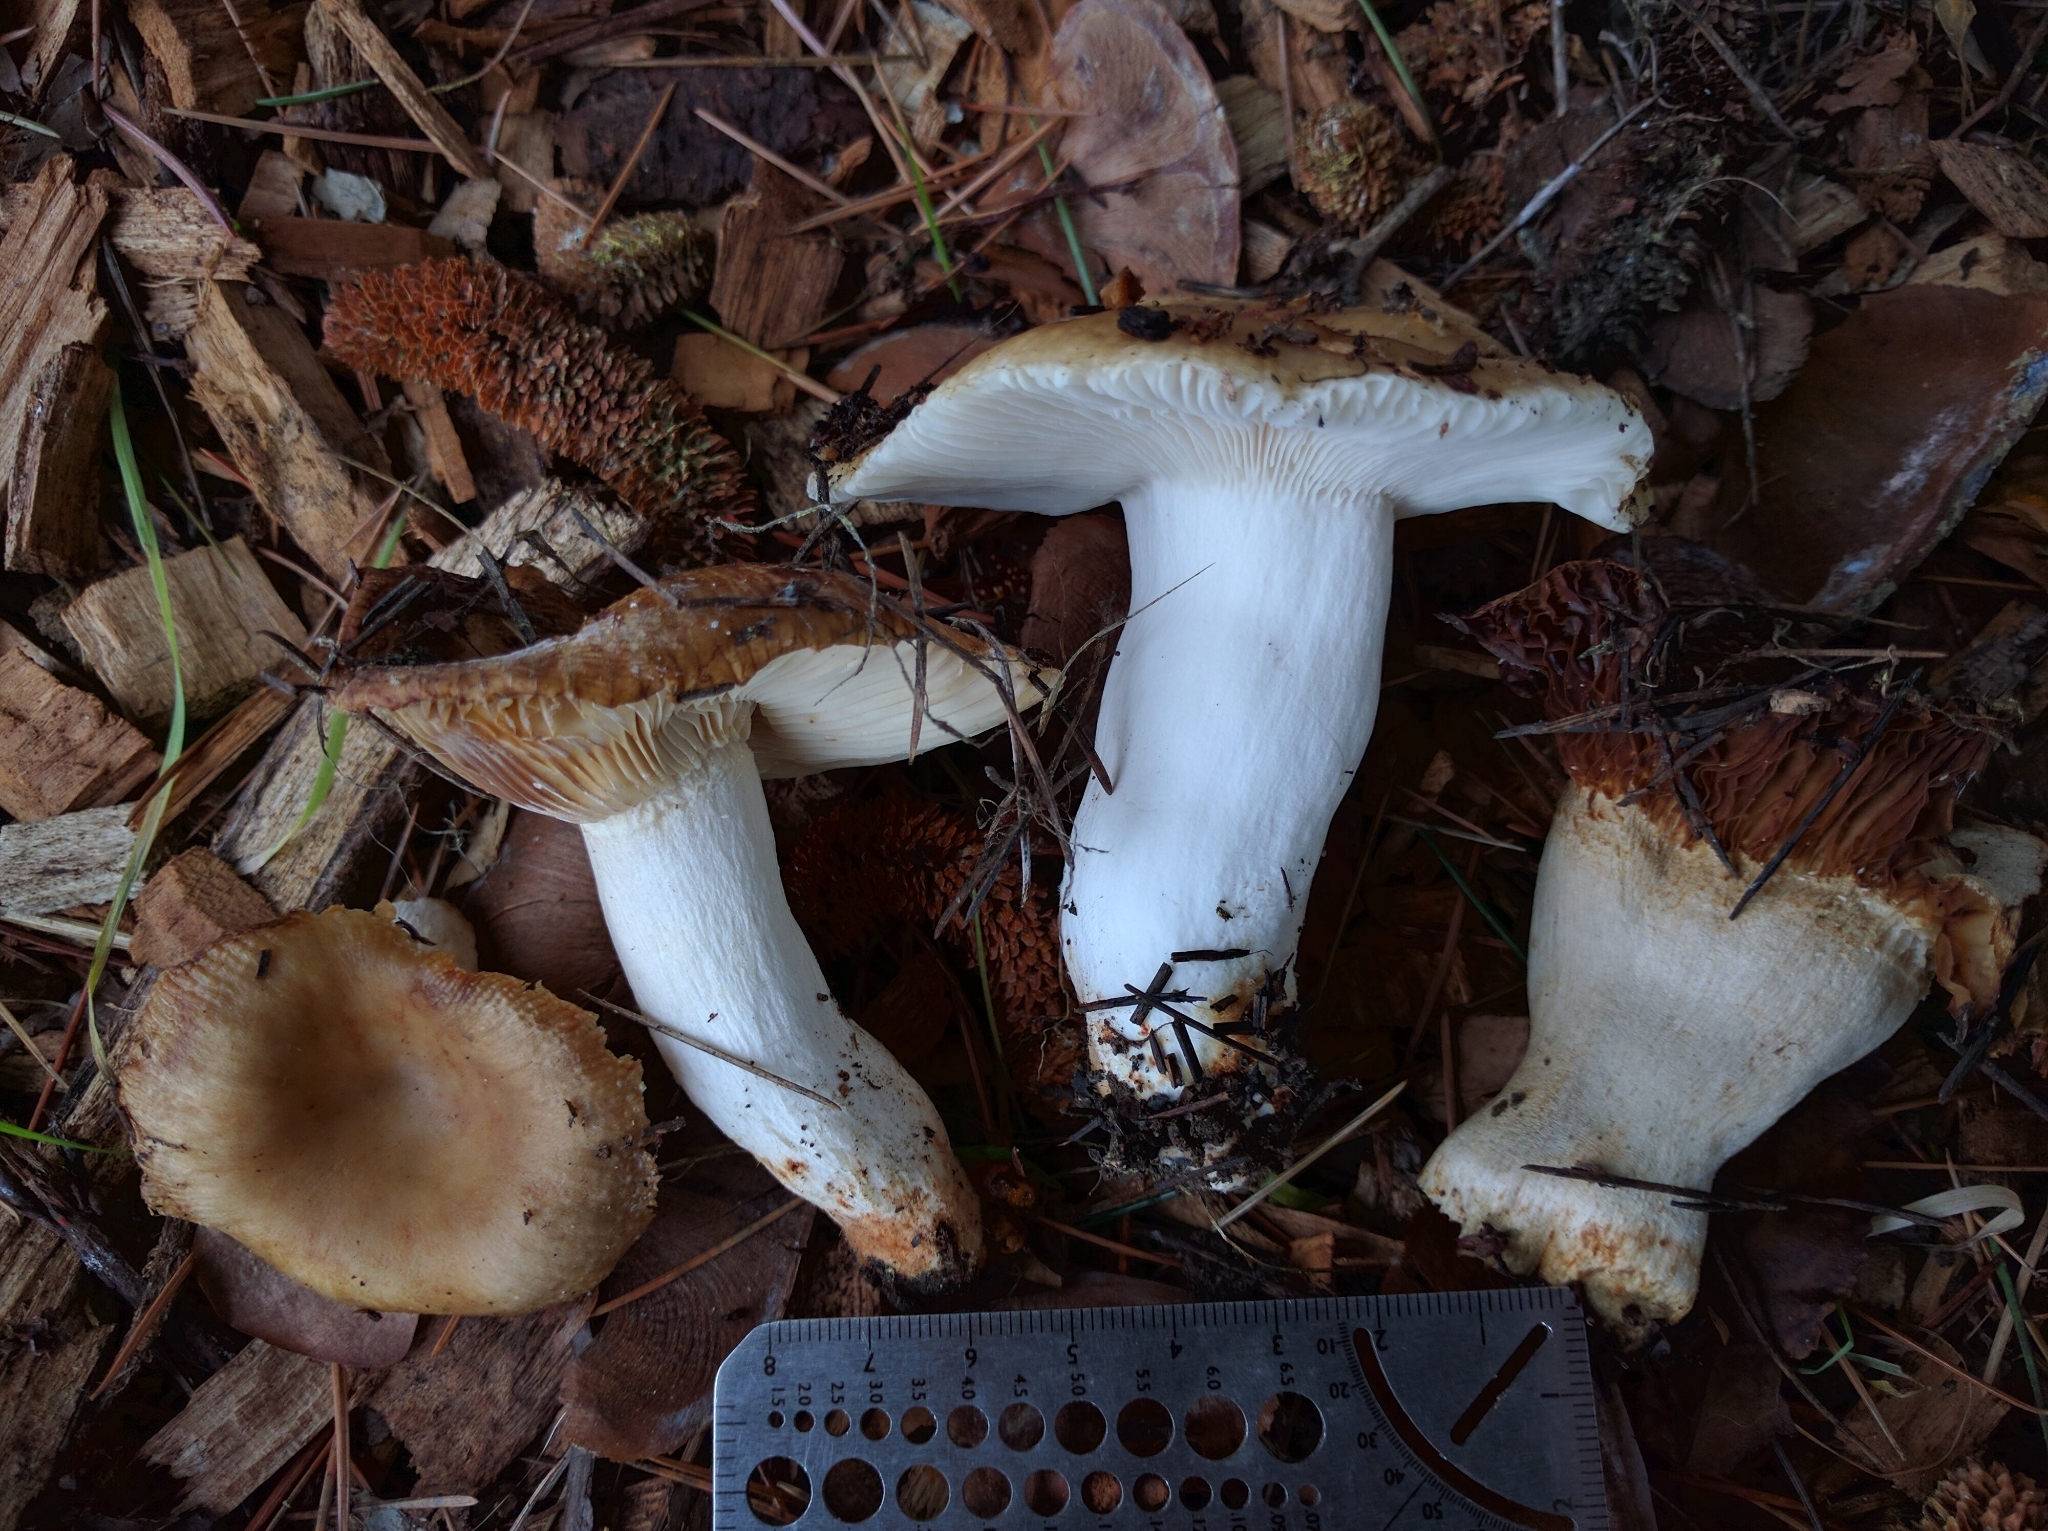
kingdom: Fungi
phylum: Basidiomycota
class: Agaricomycetes
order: Russulales
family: Russulaceae
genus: Russula
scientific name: Russula cerolens
